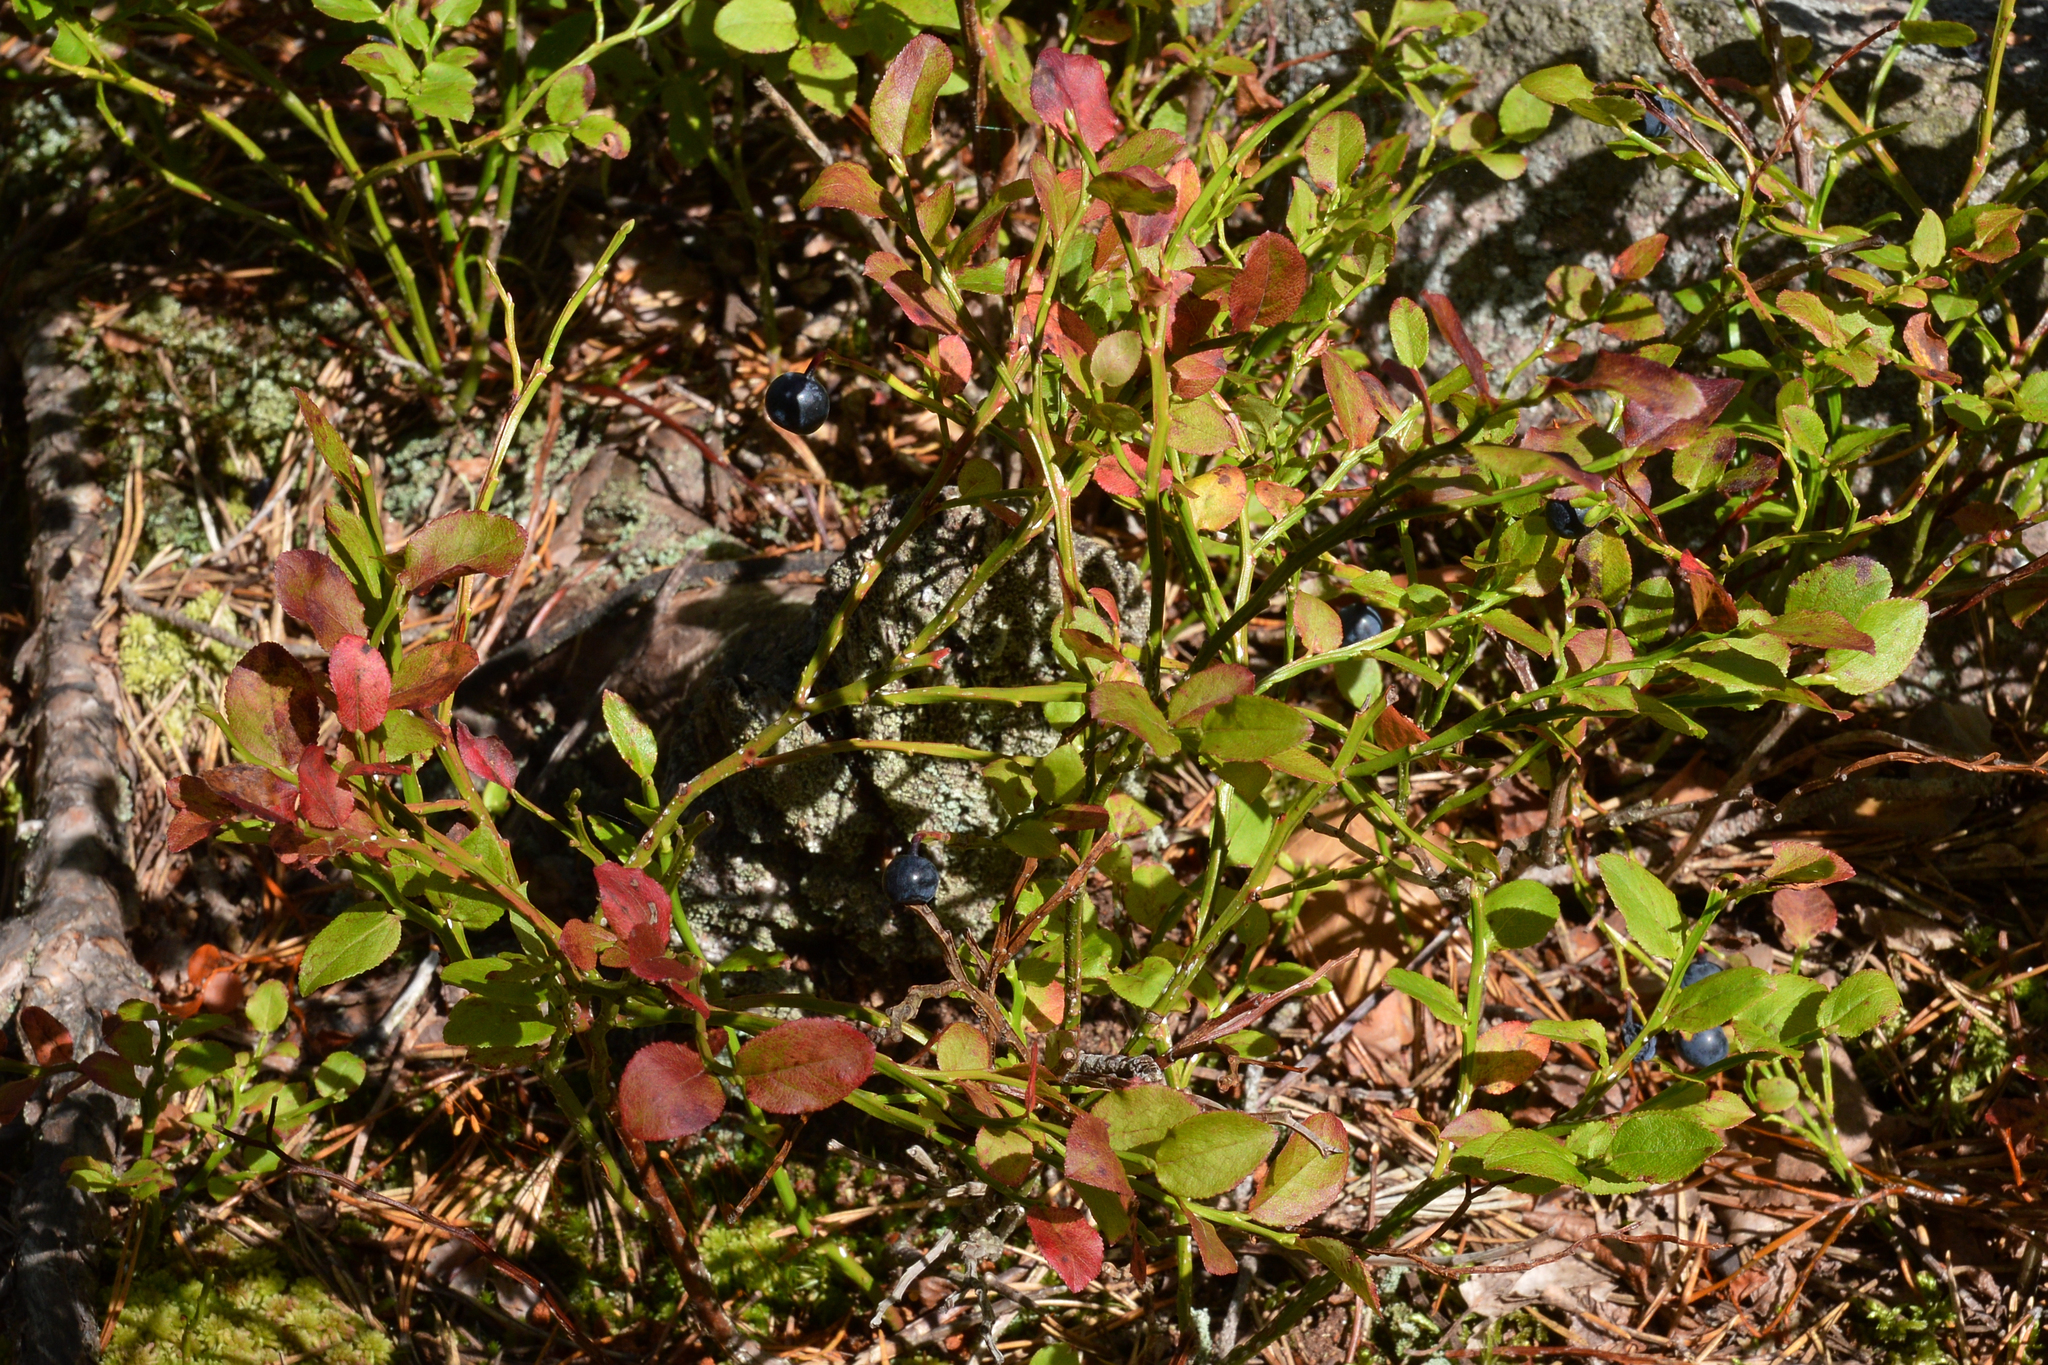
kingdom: Plantae
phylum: Tracheophyta
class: Magnoliopsida
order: Ericales
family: Ericaceae
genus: Vaccinium
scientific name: Vaccinium myrtillus
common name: Bilberry
